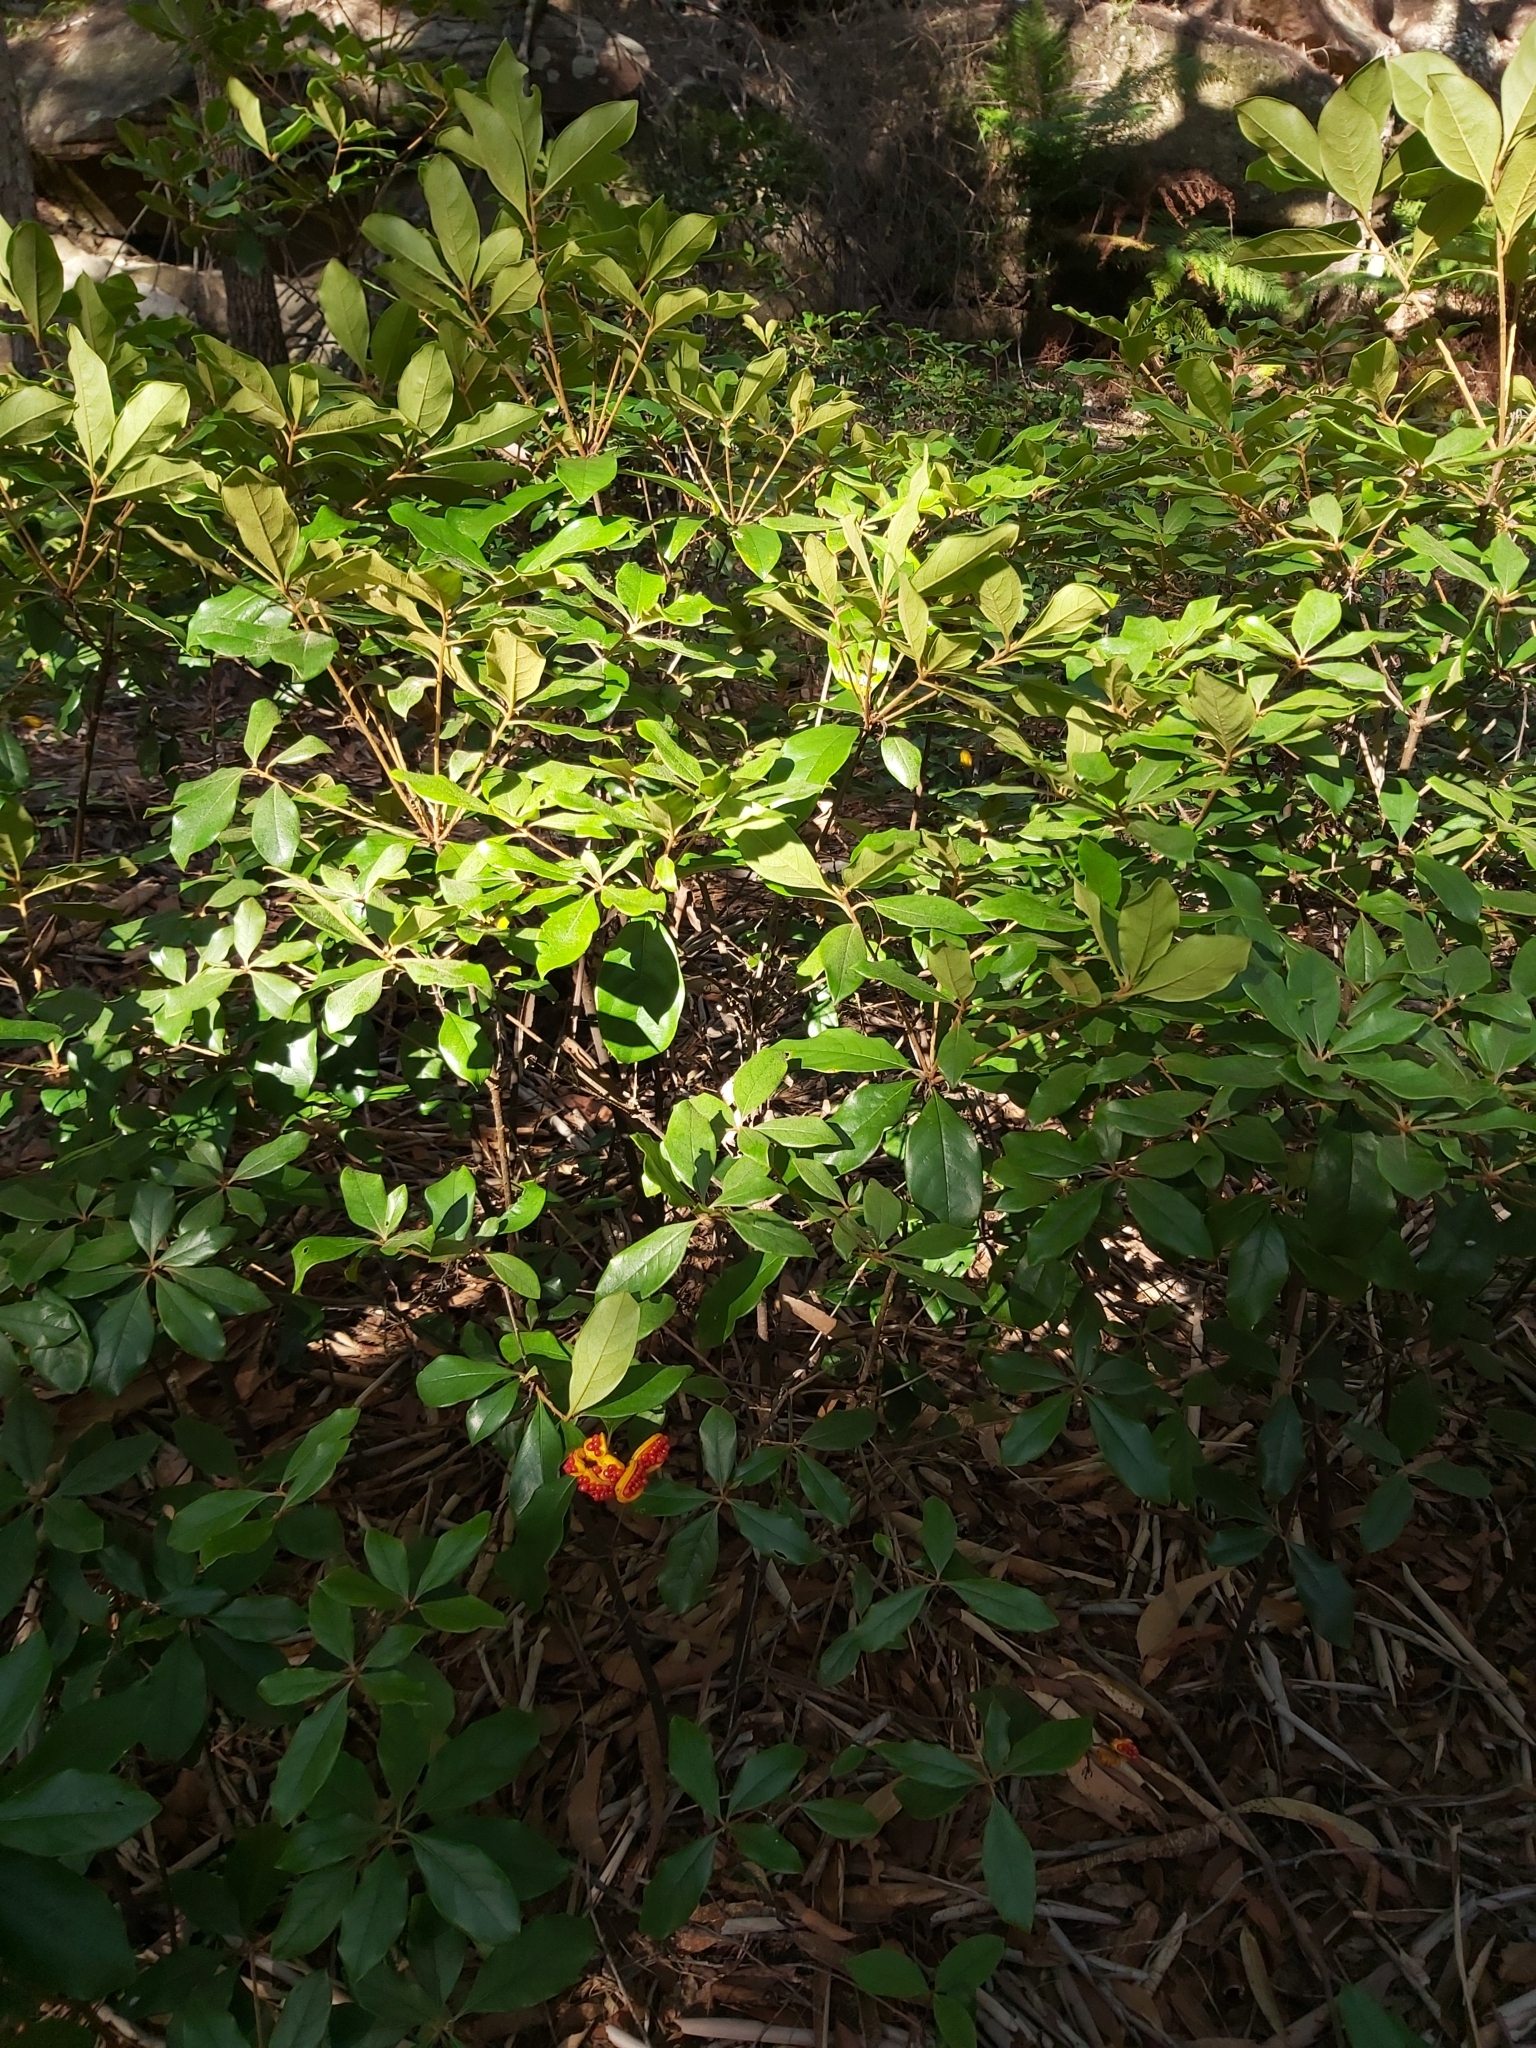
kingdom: Plantae
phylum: Tracheophyta
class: Magnoliopsida
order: Apiales
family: Pittosporaceae
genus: Pittosporum
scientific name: Pittosporum revolutum
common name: Brisbane-laurel
